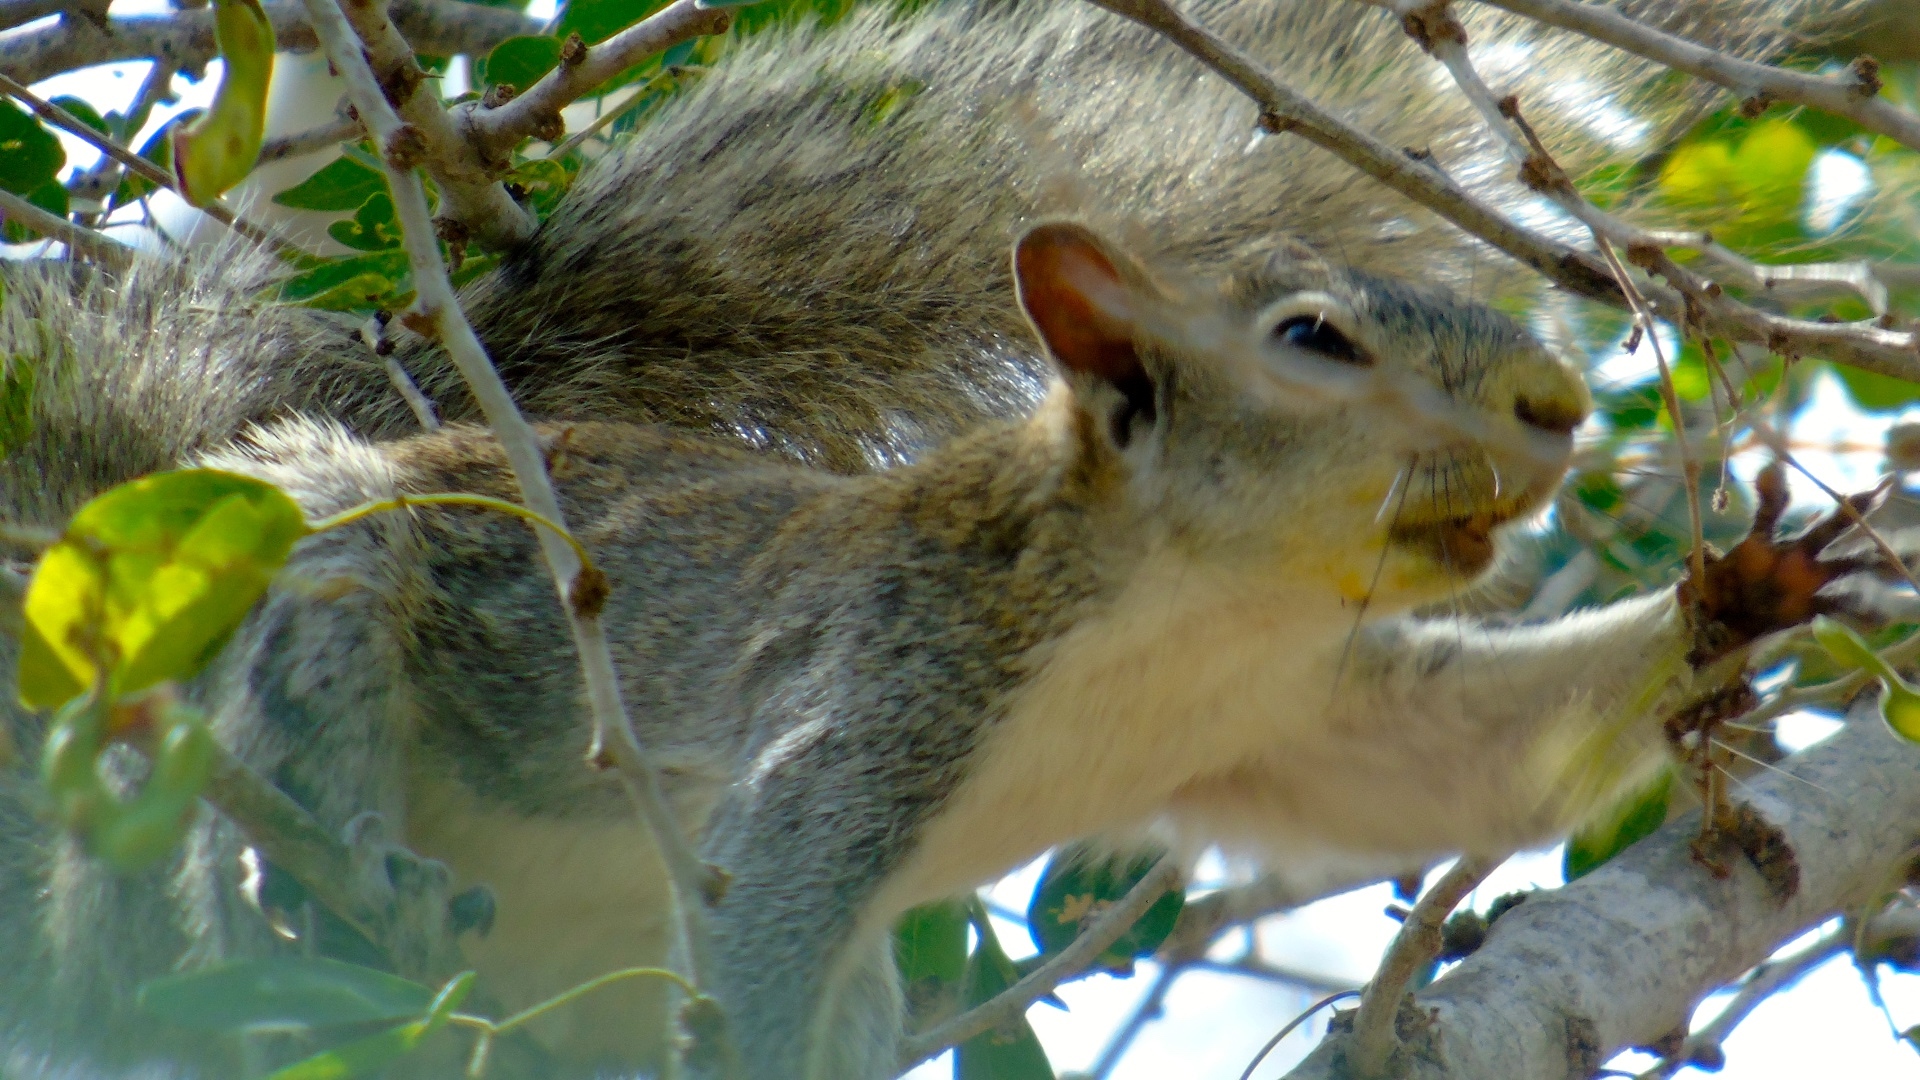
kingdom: Animalia
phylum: Chordata
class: Mammalia
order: Rodentia
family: Sciuridae
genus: Sciurus
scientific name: Sciurus colliaei
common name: Collie's squirrel
